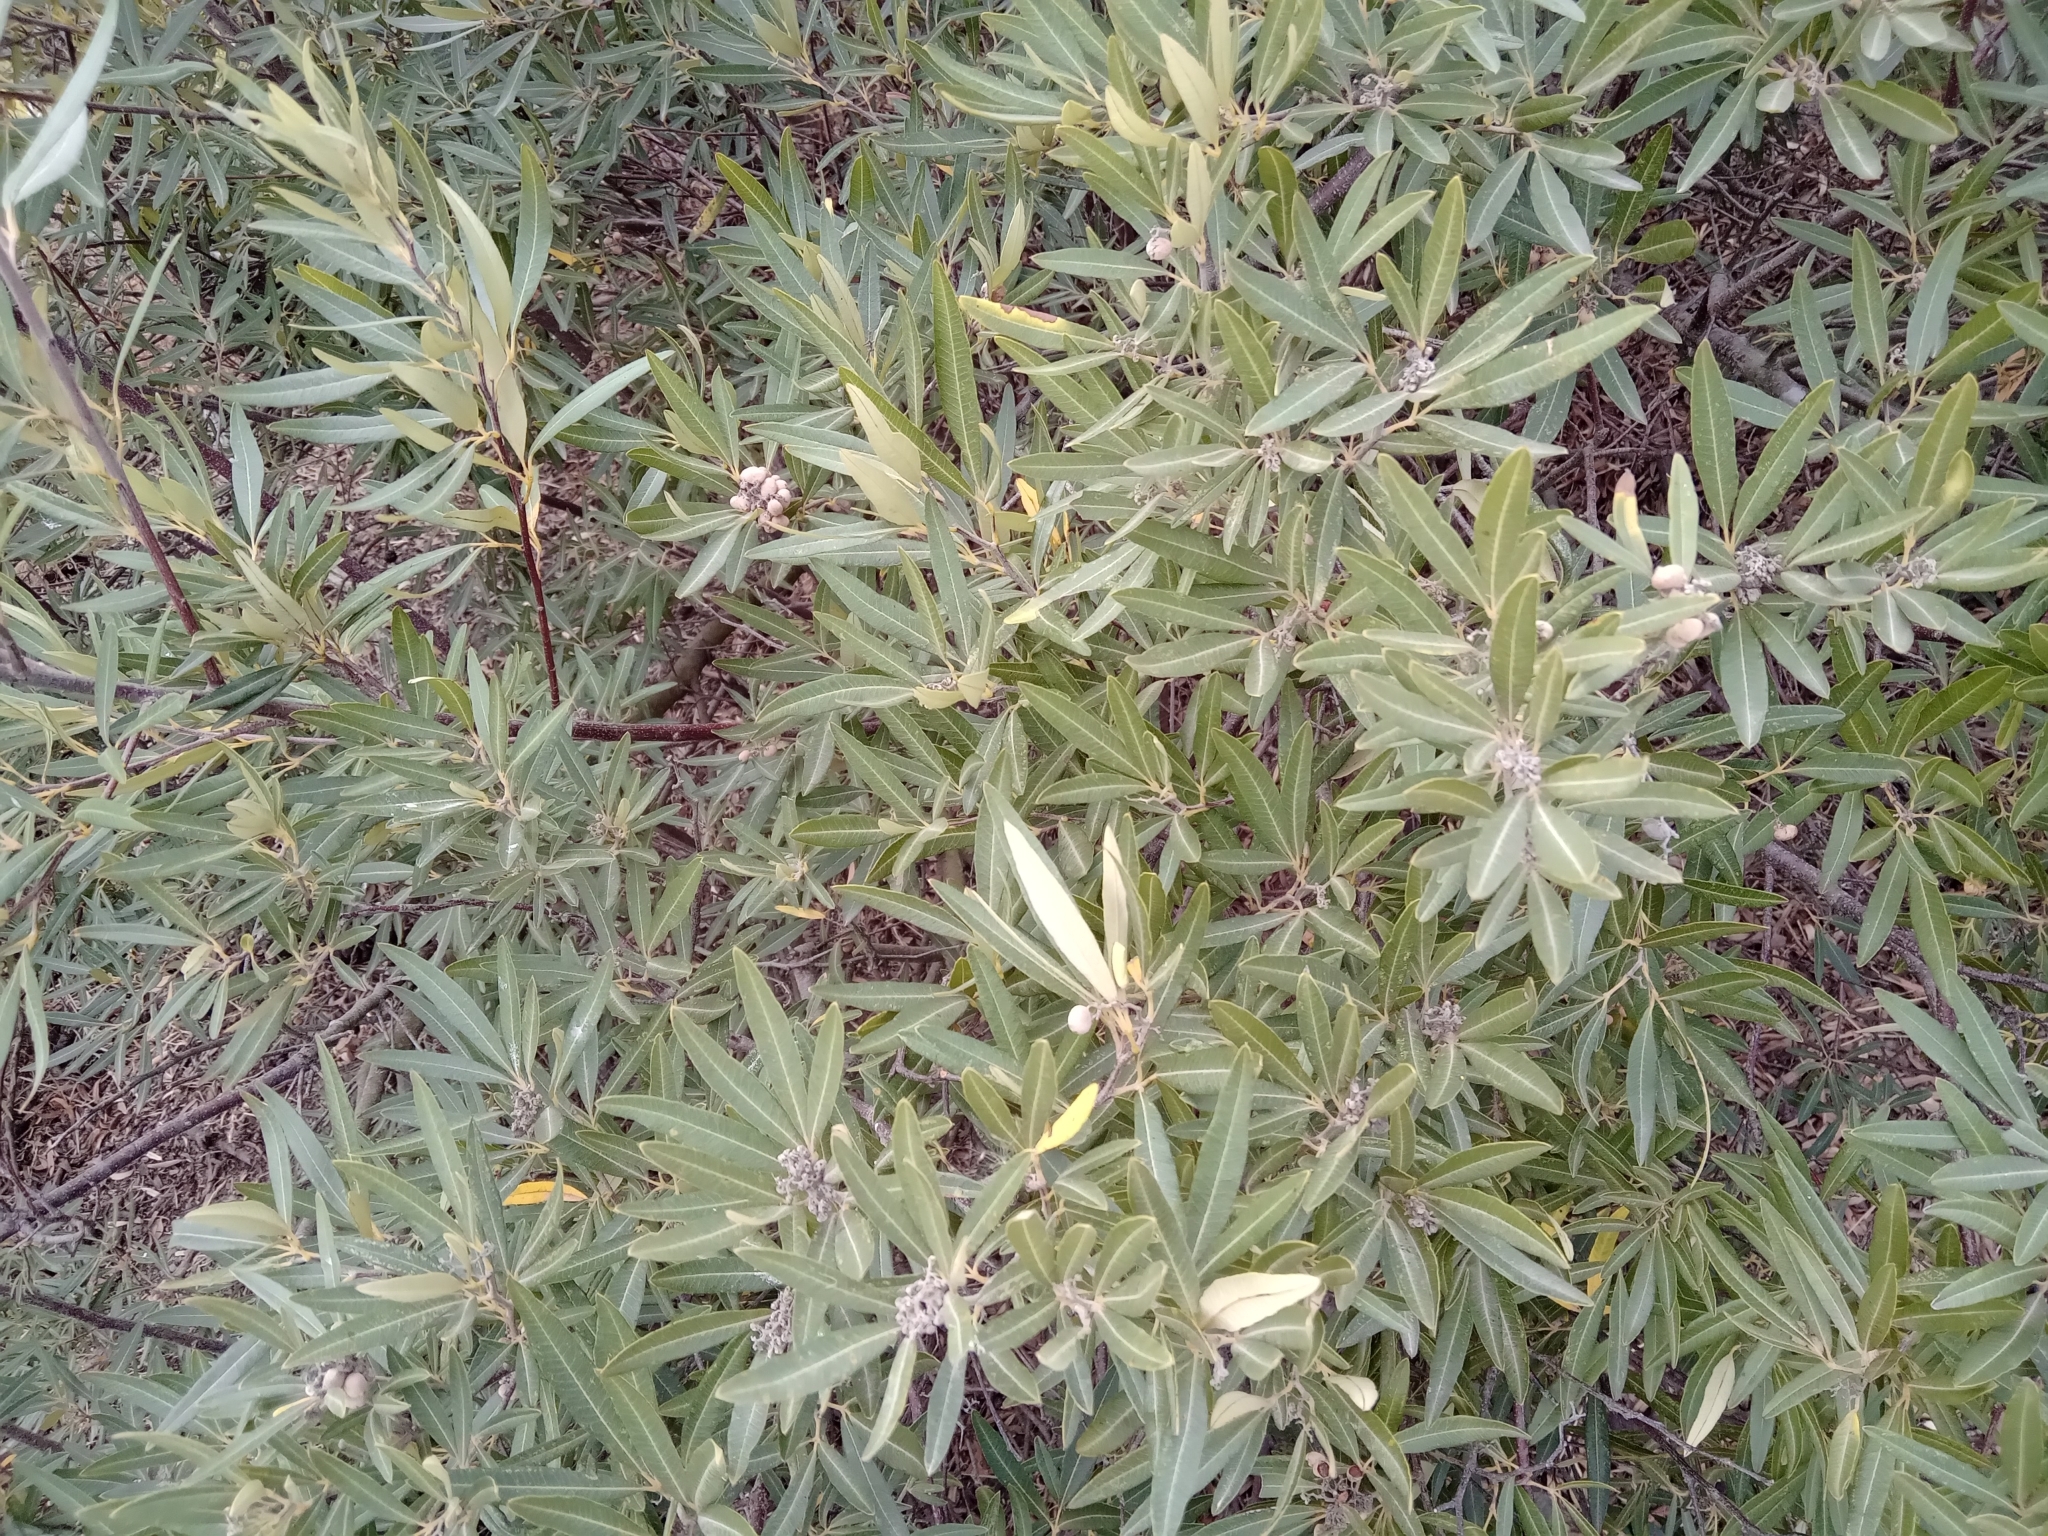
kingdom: Plantae
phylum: Tracheophyta
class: Magnoliopsida
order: Sapindales
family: Anacardiaceae
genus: Searsia
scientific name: Searsia angustifolia
